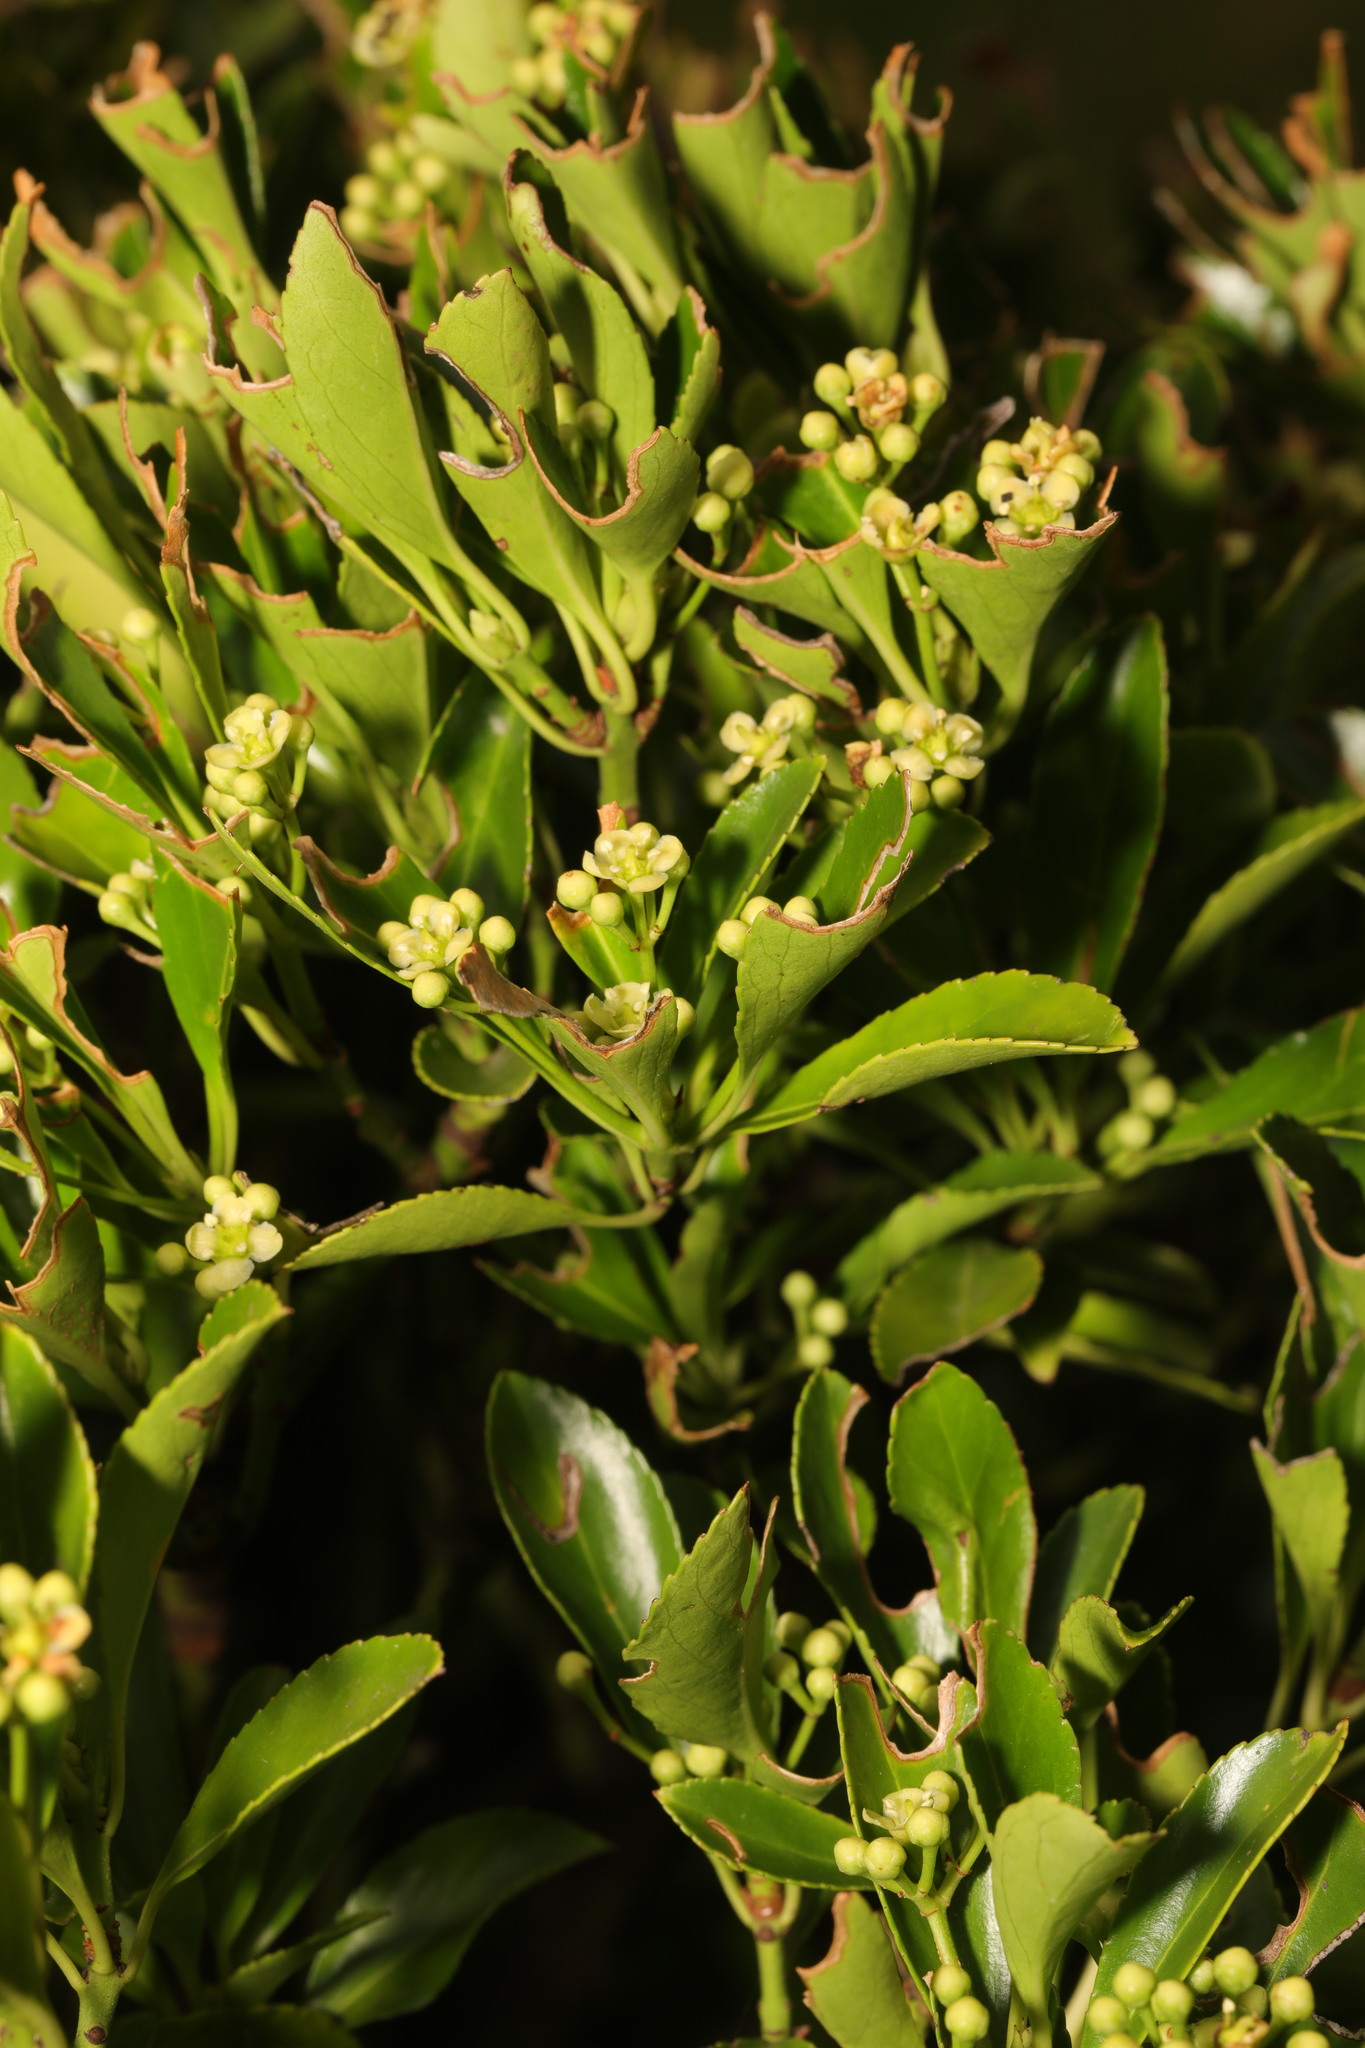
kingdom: Plantae
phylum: Tracheophyta
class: Magnoliopsida
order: Celastrales
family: Celastraceae
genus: Euonymus
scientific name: Euonymus japonicus
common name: Japanese spindletree
